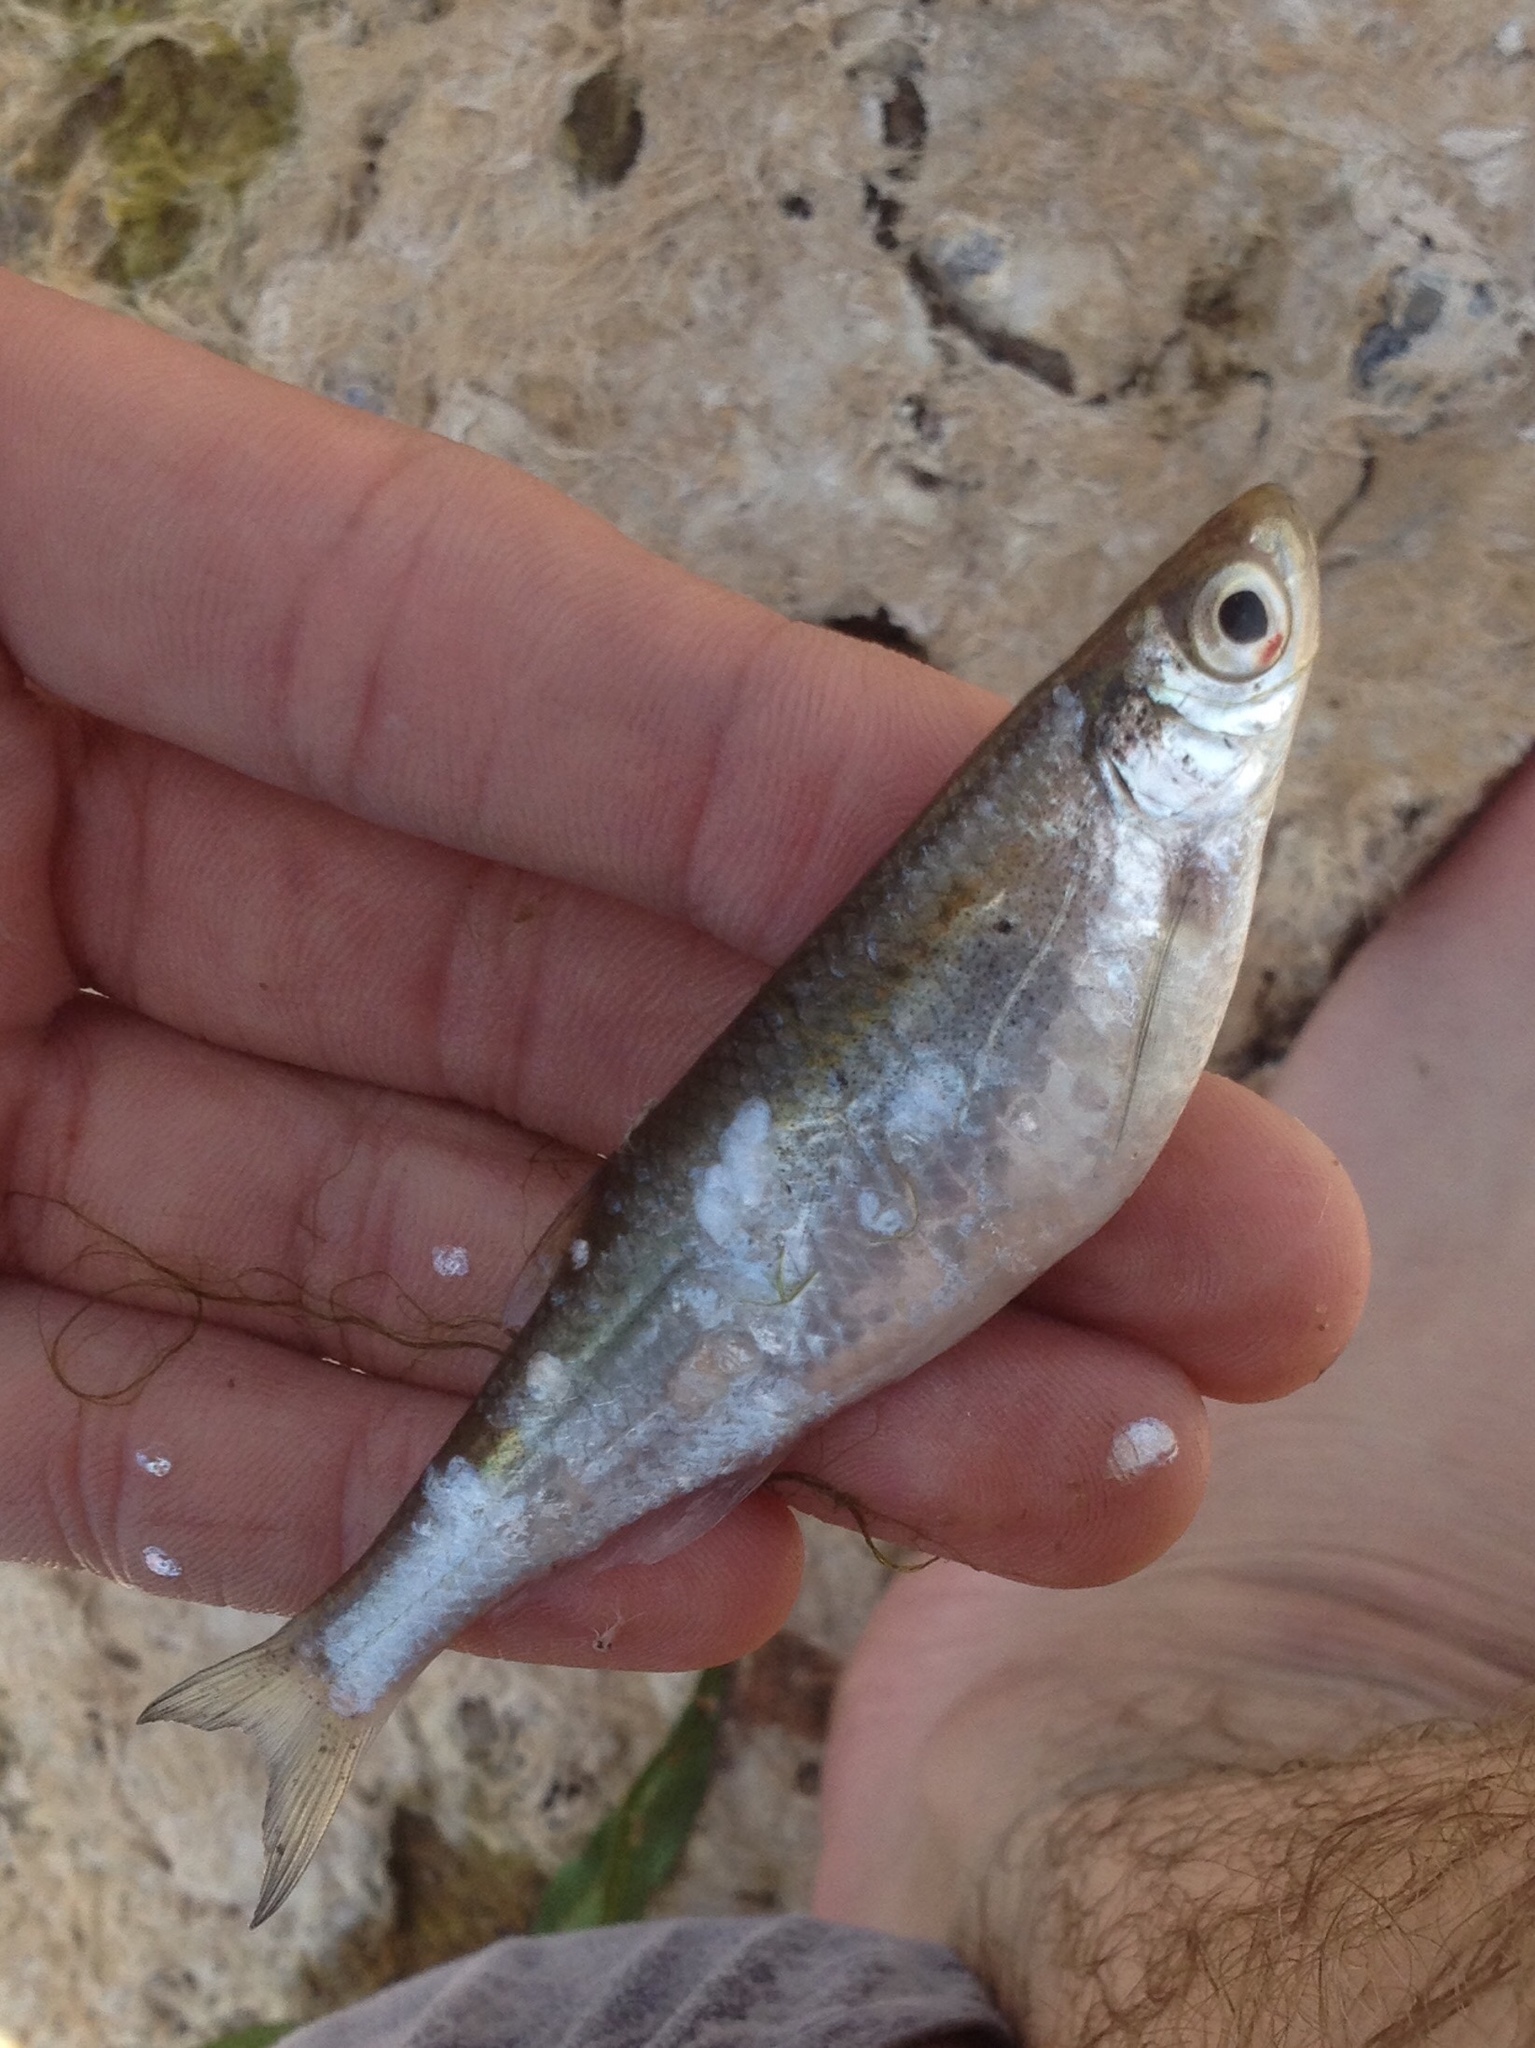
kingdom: Animalia
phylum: Chordata
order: Cypriniformes
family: Cyprinidae
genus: Alburnus
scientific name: Alburnus alburnus
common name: Bleak
